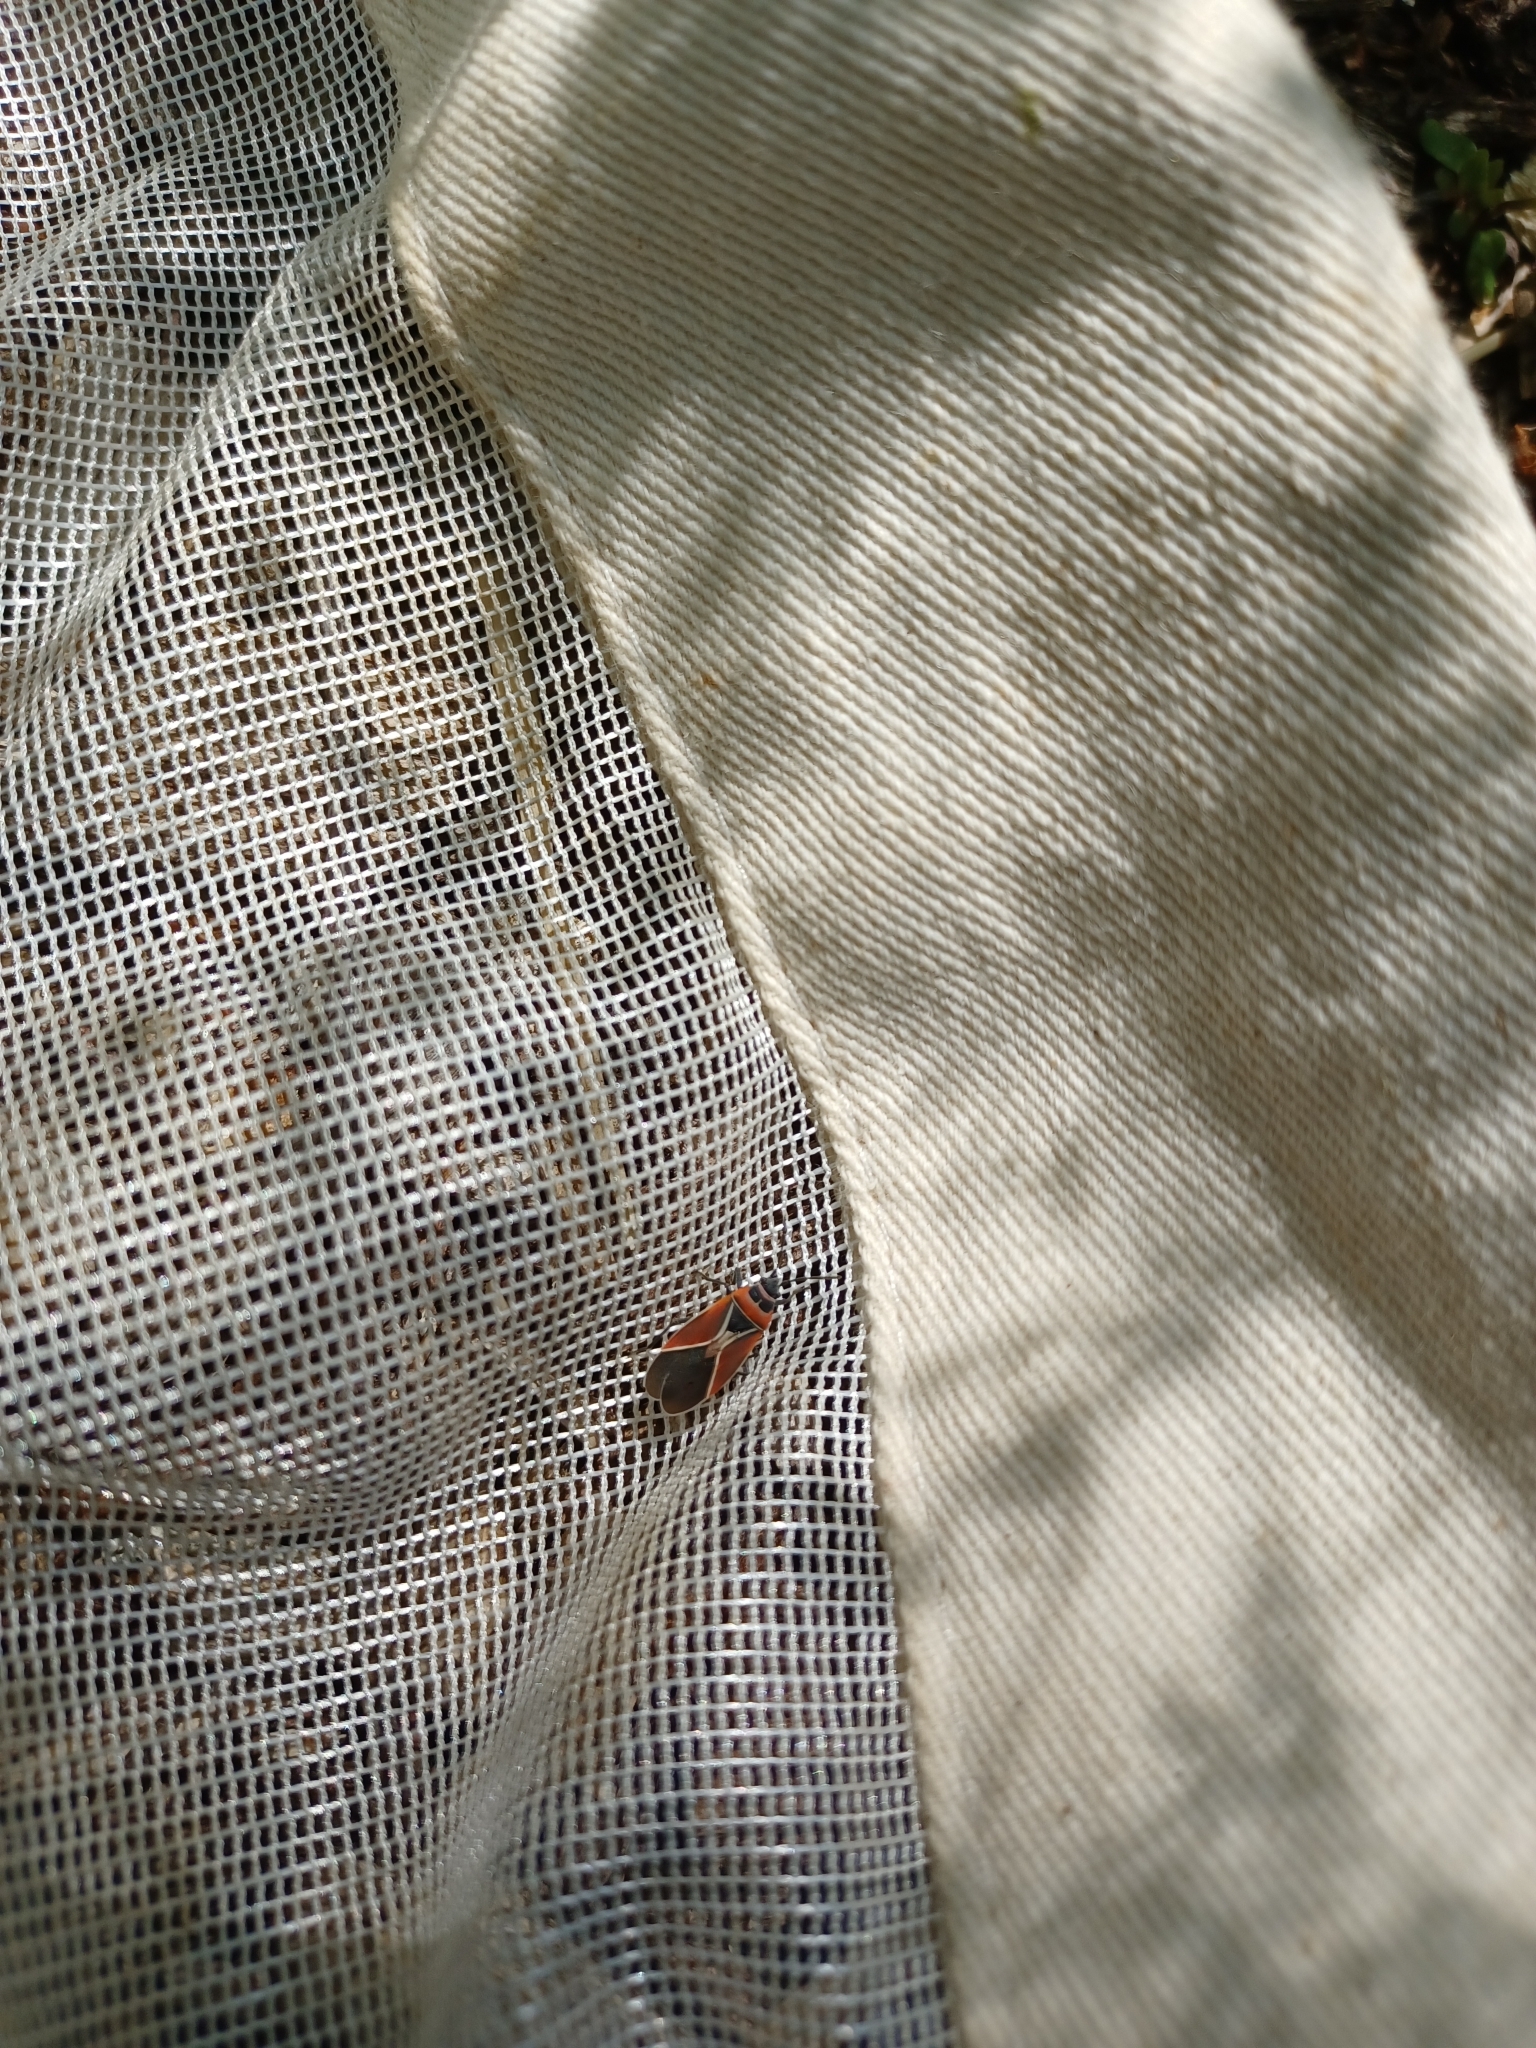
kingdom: Animalia
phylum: Arthropoda
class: Insecta
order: Hemiptera
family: Lygaeidae
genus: Neacoryphus
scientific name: Neacoryphus bicrucis
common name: Lygaeid bug
